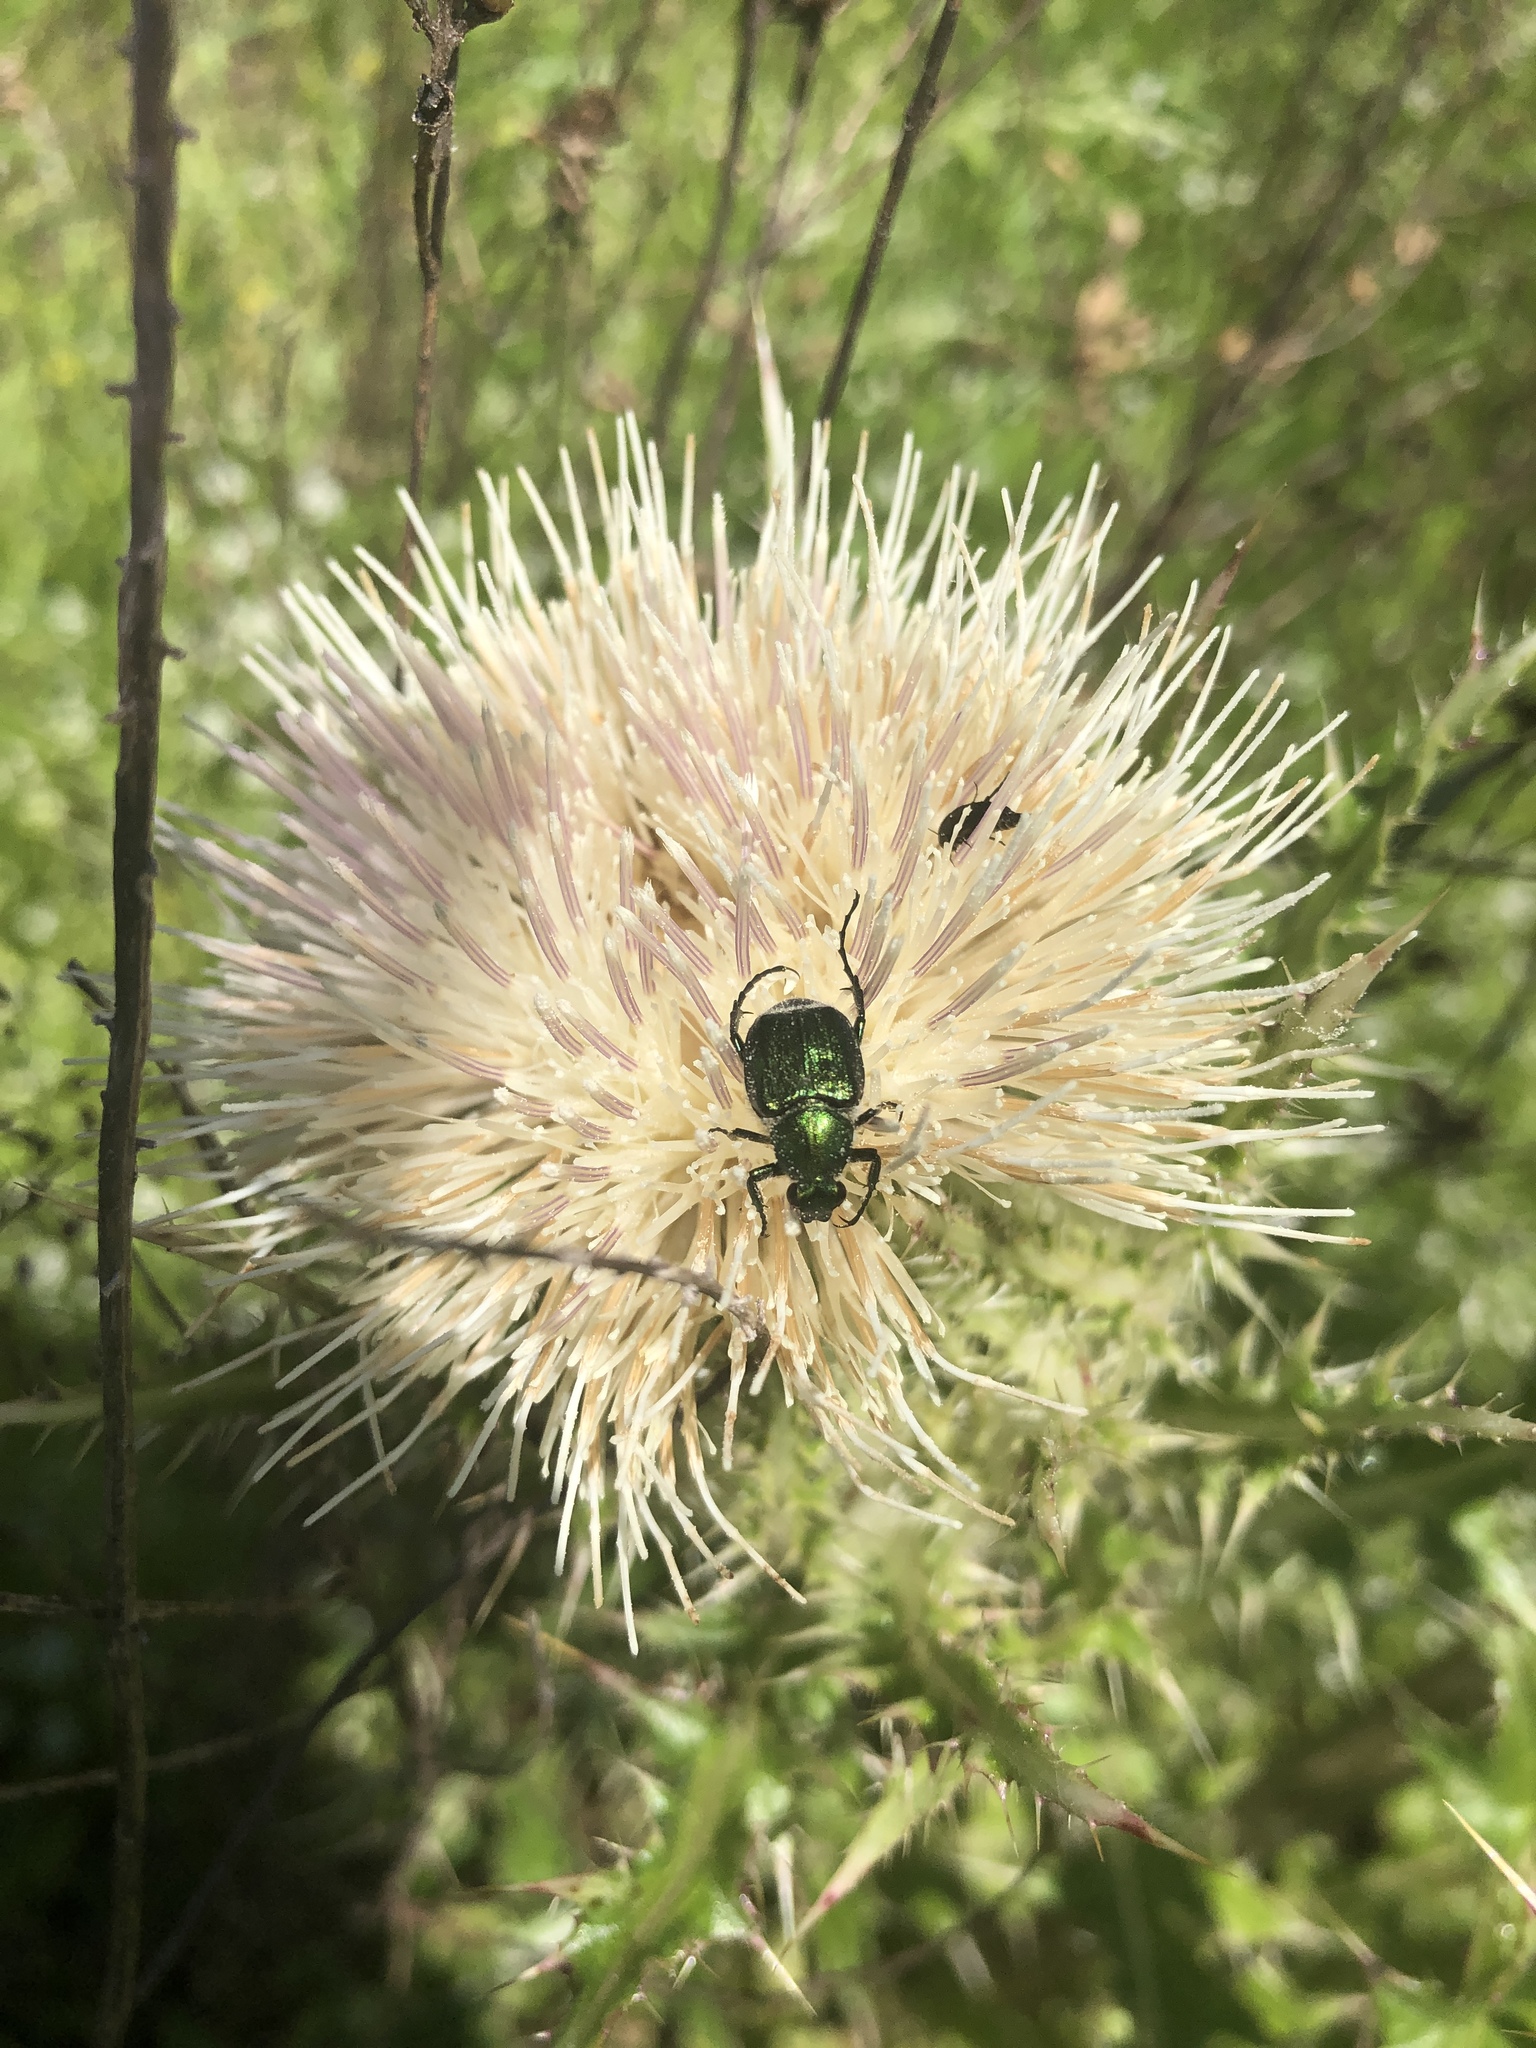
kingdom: Animalia
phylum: Arthropoda
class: Insecta
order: Coleoptera
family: Scarabaeidae
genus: Trichiotinus
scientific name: Trichiotinus lunulatus
